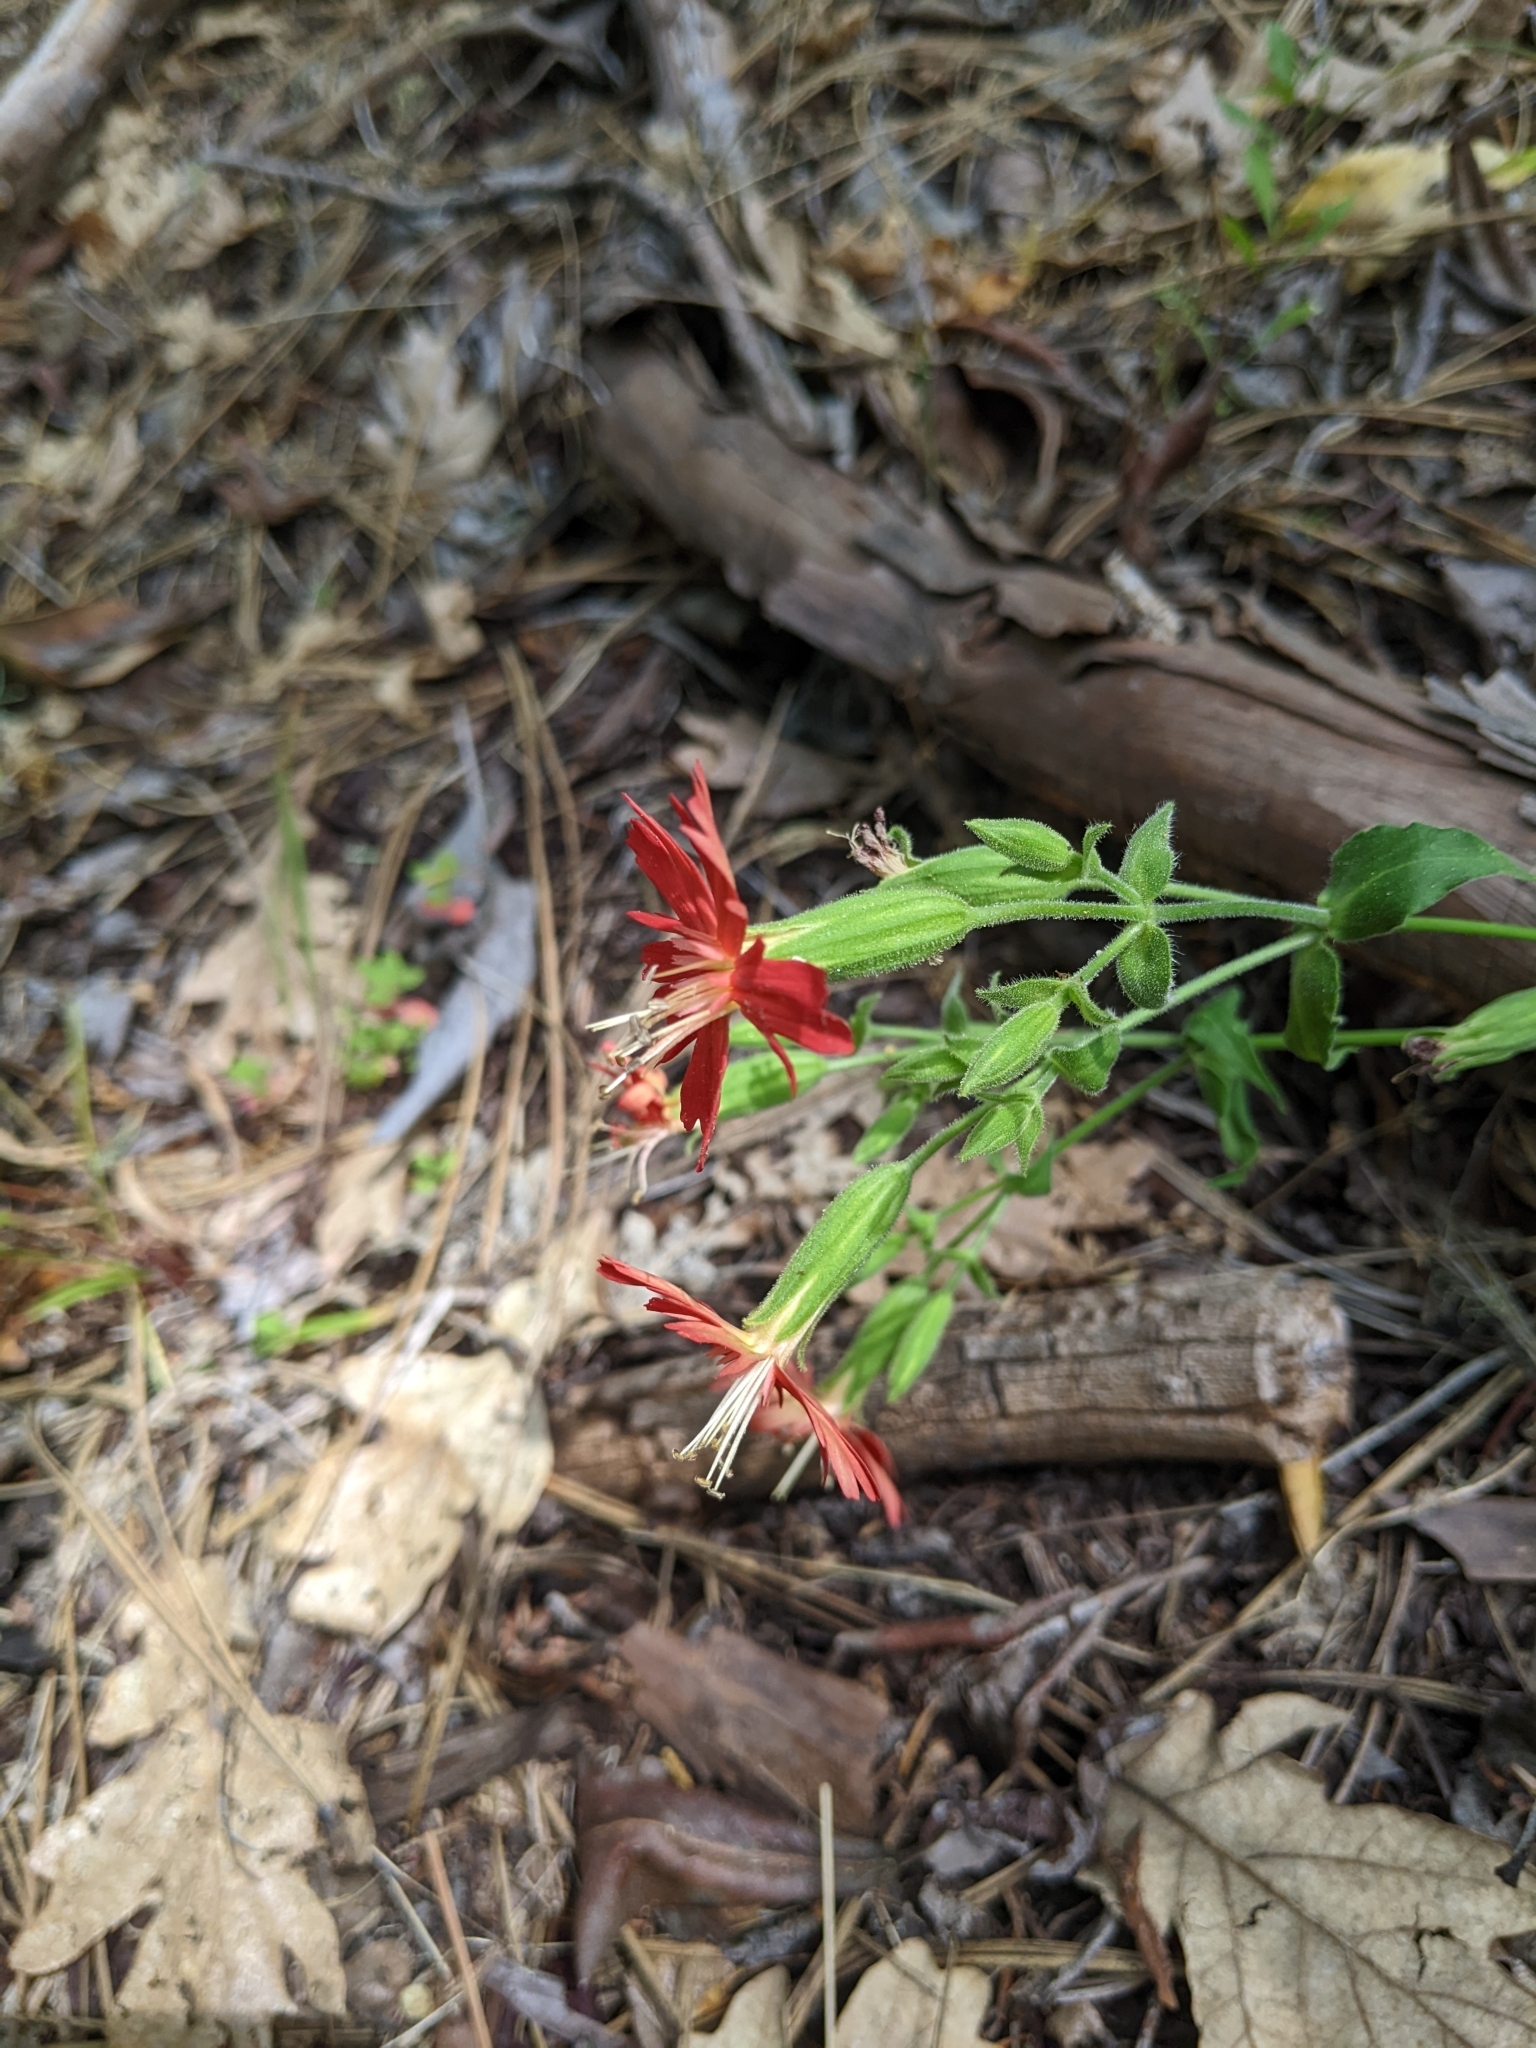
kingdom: Plantae
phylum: Tracheophyta
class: Magnoliopsida
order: Caryophyllales
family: Caryophyllaceae
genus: Silene
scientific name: Silene laciniata
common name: Indian-pink
